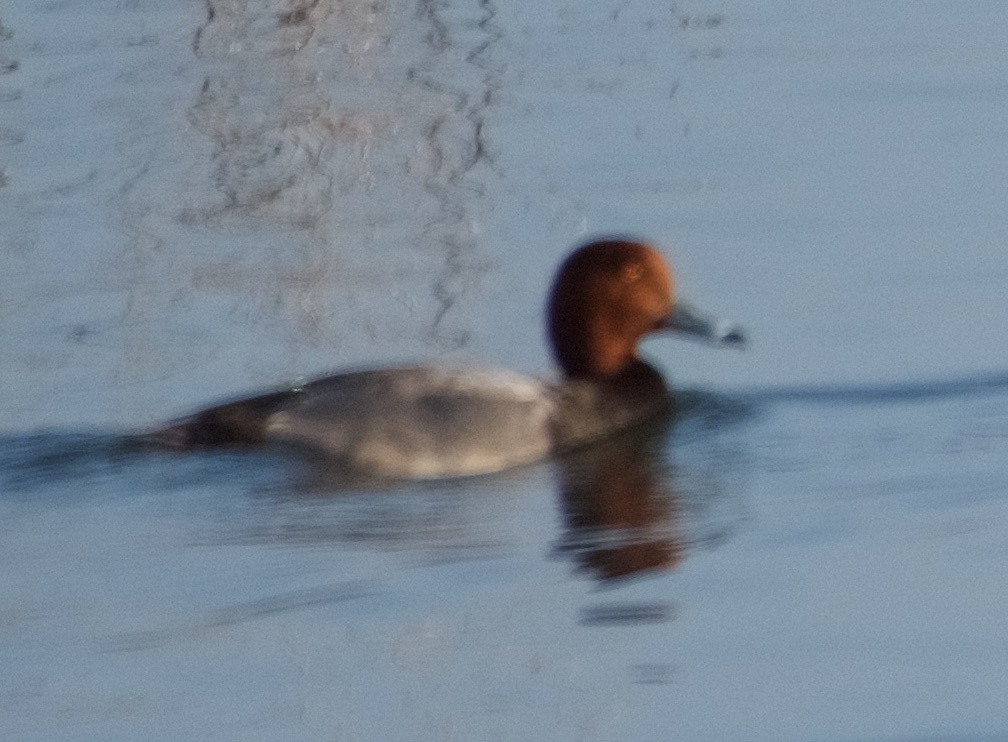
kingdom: Animalia
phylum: Chordata
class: Aves
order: Anseriformes
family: Anatidae
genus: Aythya
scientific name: Aythya americana
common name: Redhead
